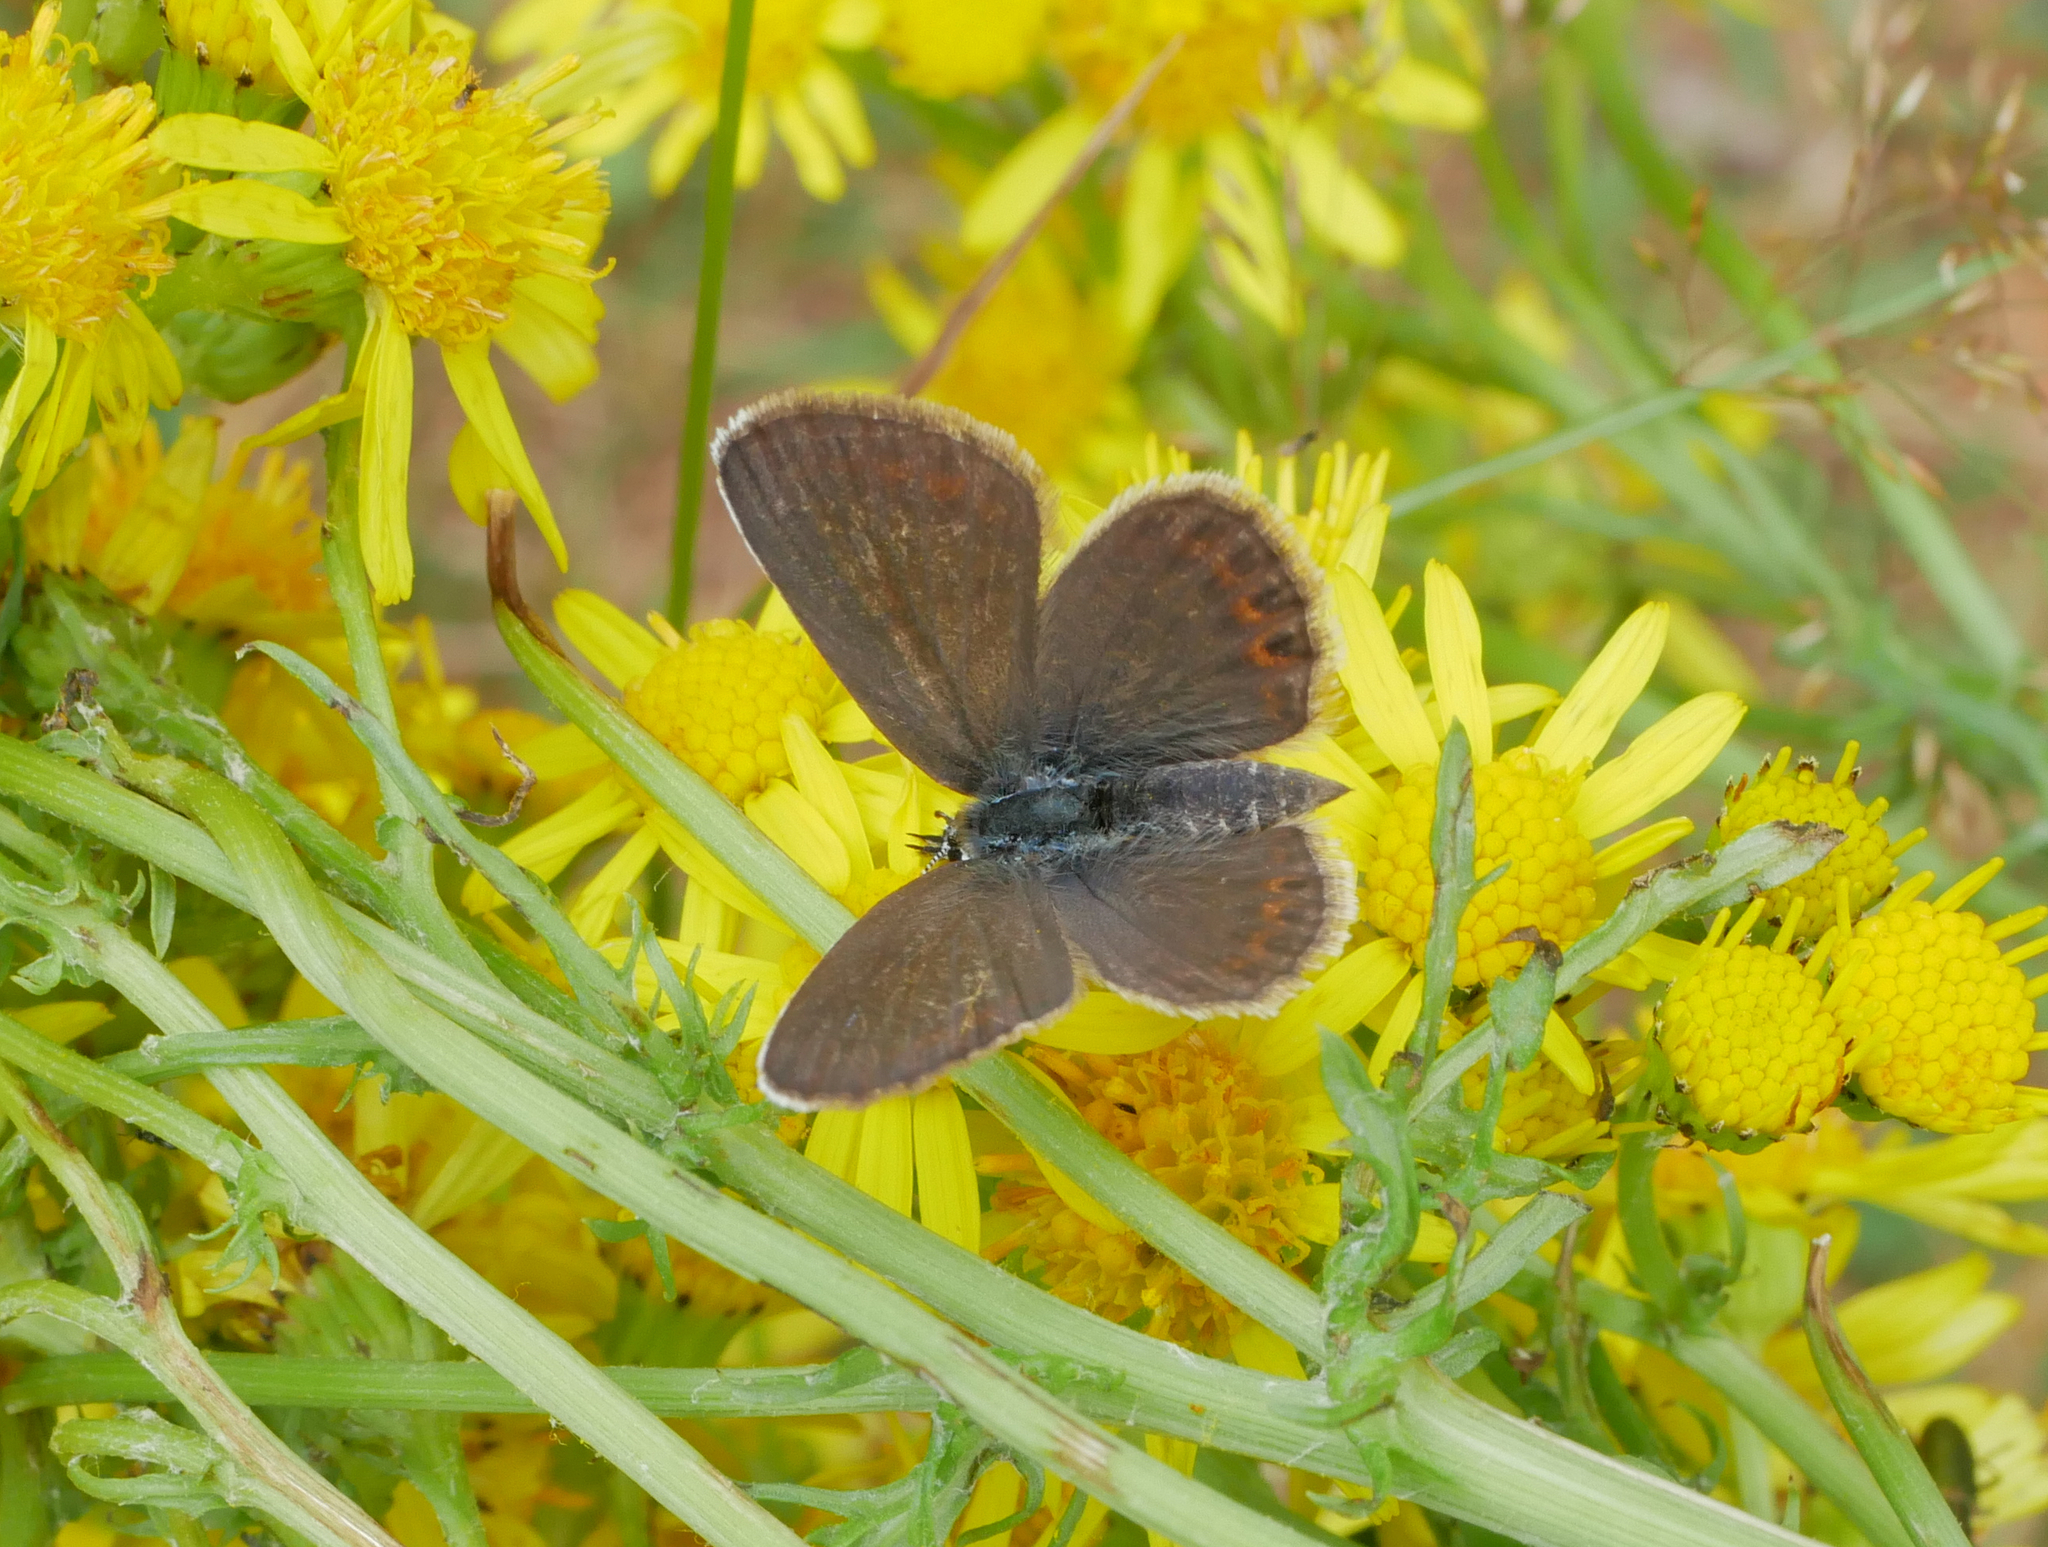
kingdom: Animalia
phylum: Arthropoda
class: Insecta
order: Lepidoptera
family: Lycaenidae
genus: Plebejus
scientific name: Plebejus argus
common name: Silver-studded blue
